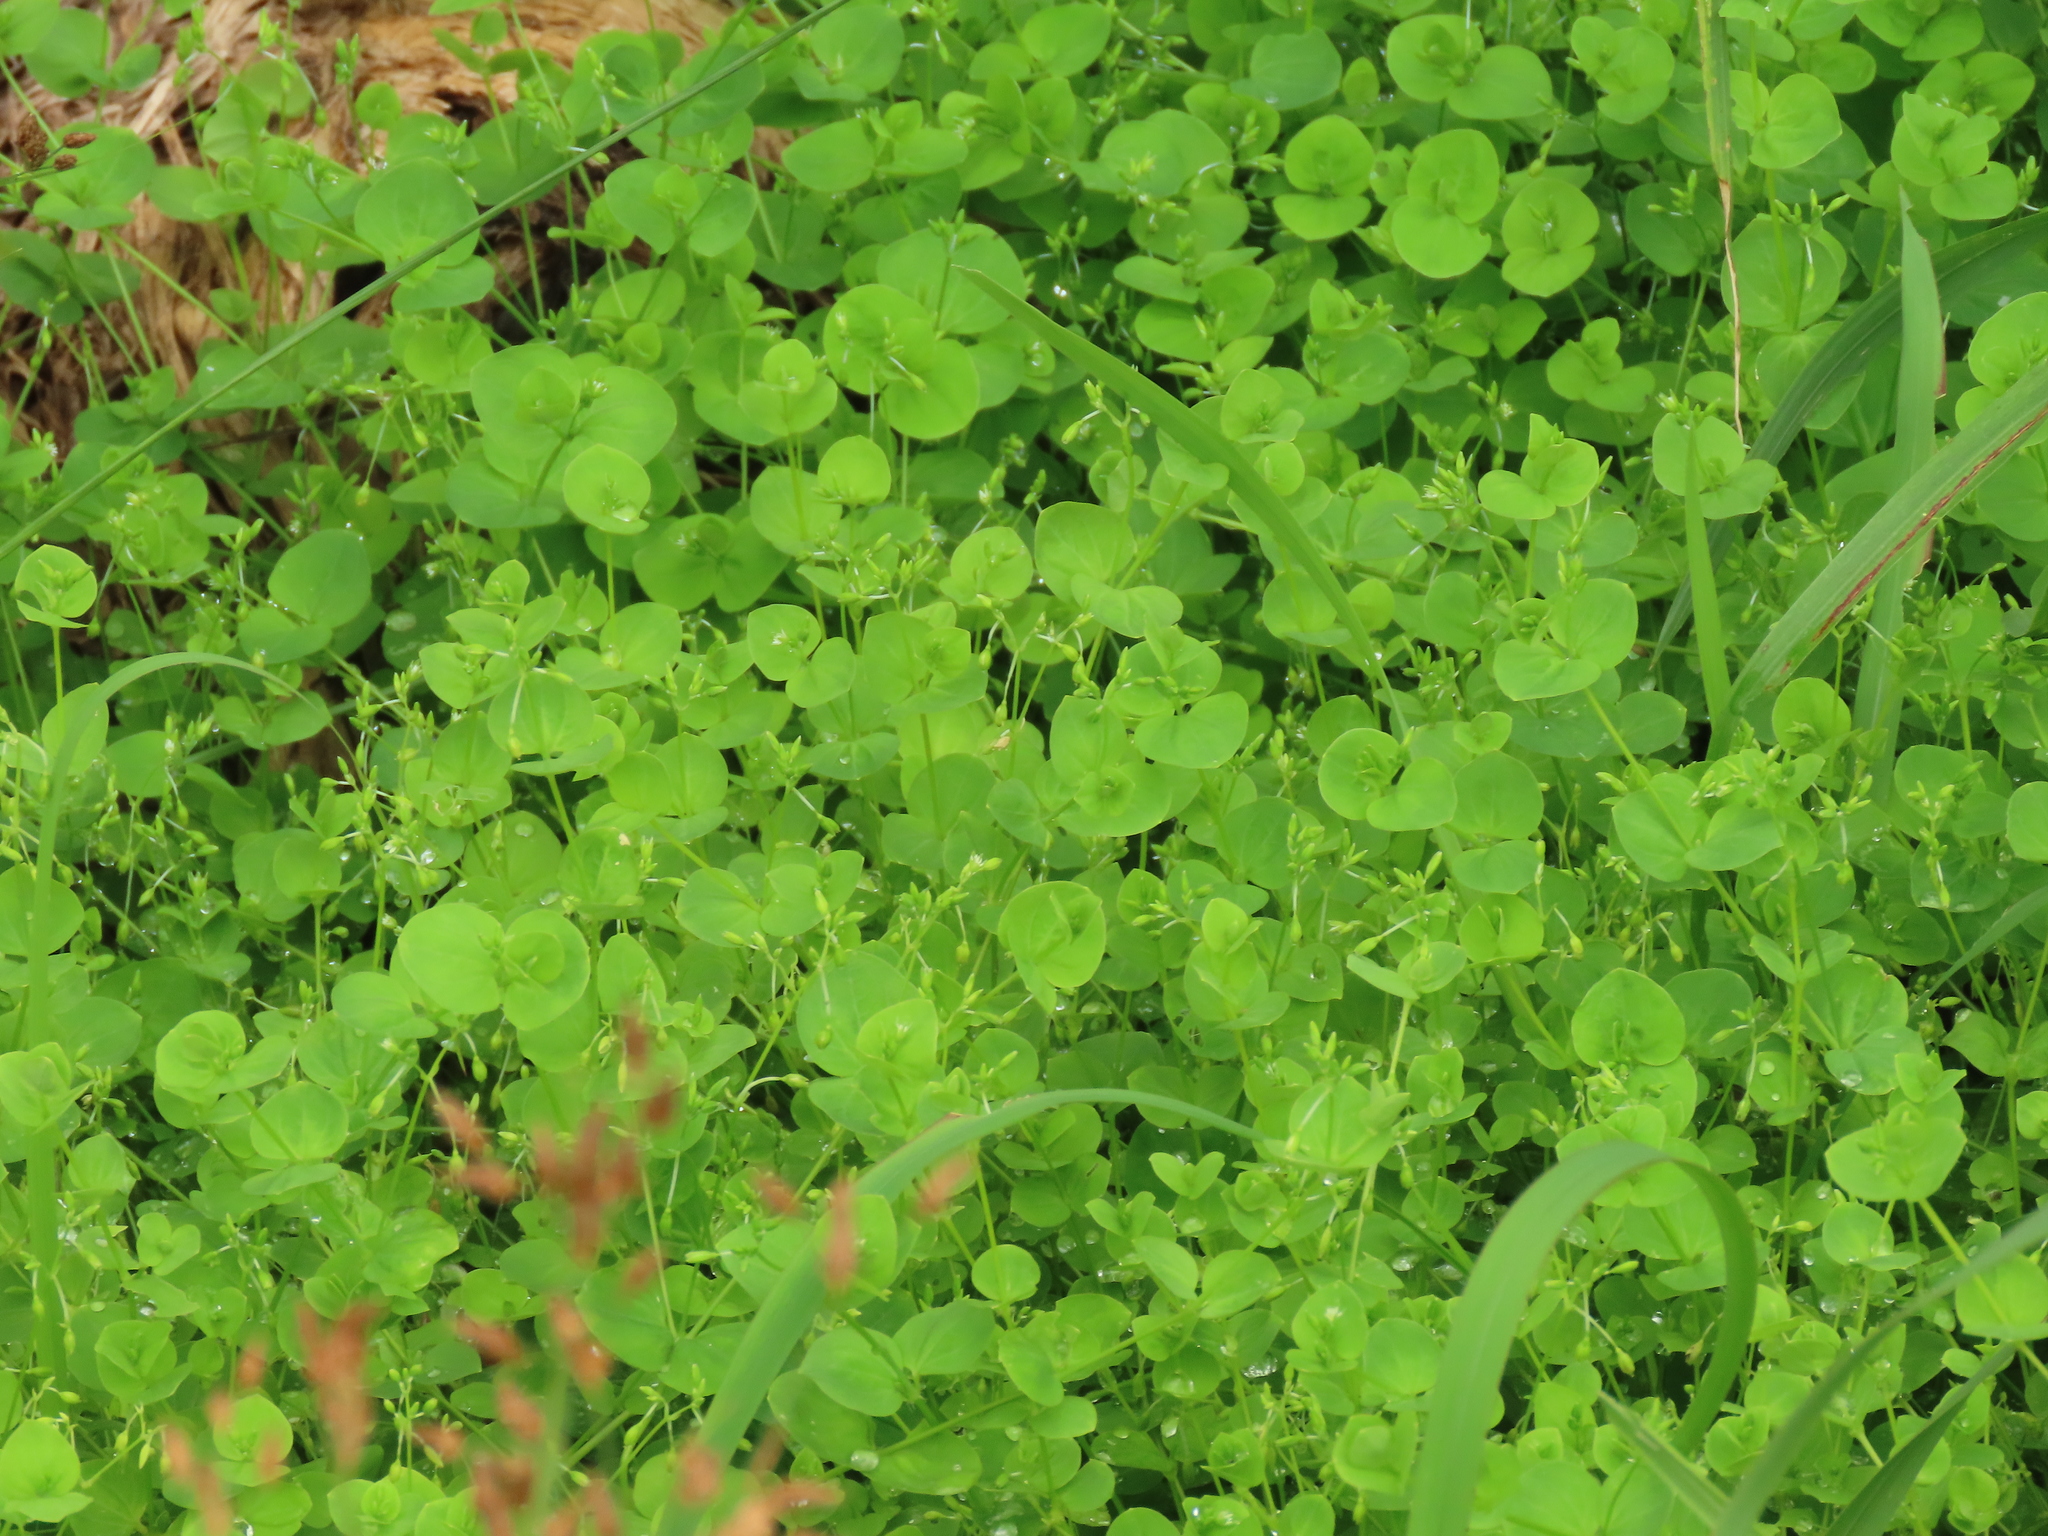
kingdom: Plantae
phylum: Tracheophyta
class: Magnoliopsida
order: Caryophyllales
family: Caryophyllaceae
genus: Drymaria
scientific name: Drymaria cordata
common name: Whitesnow
